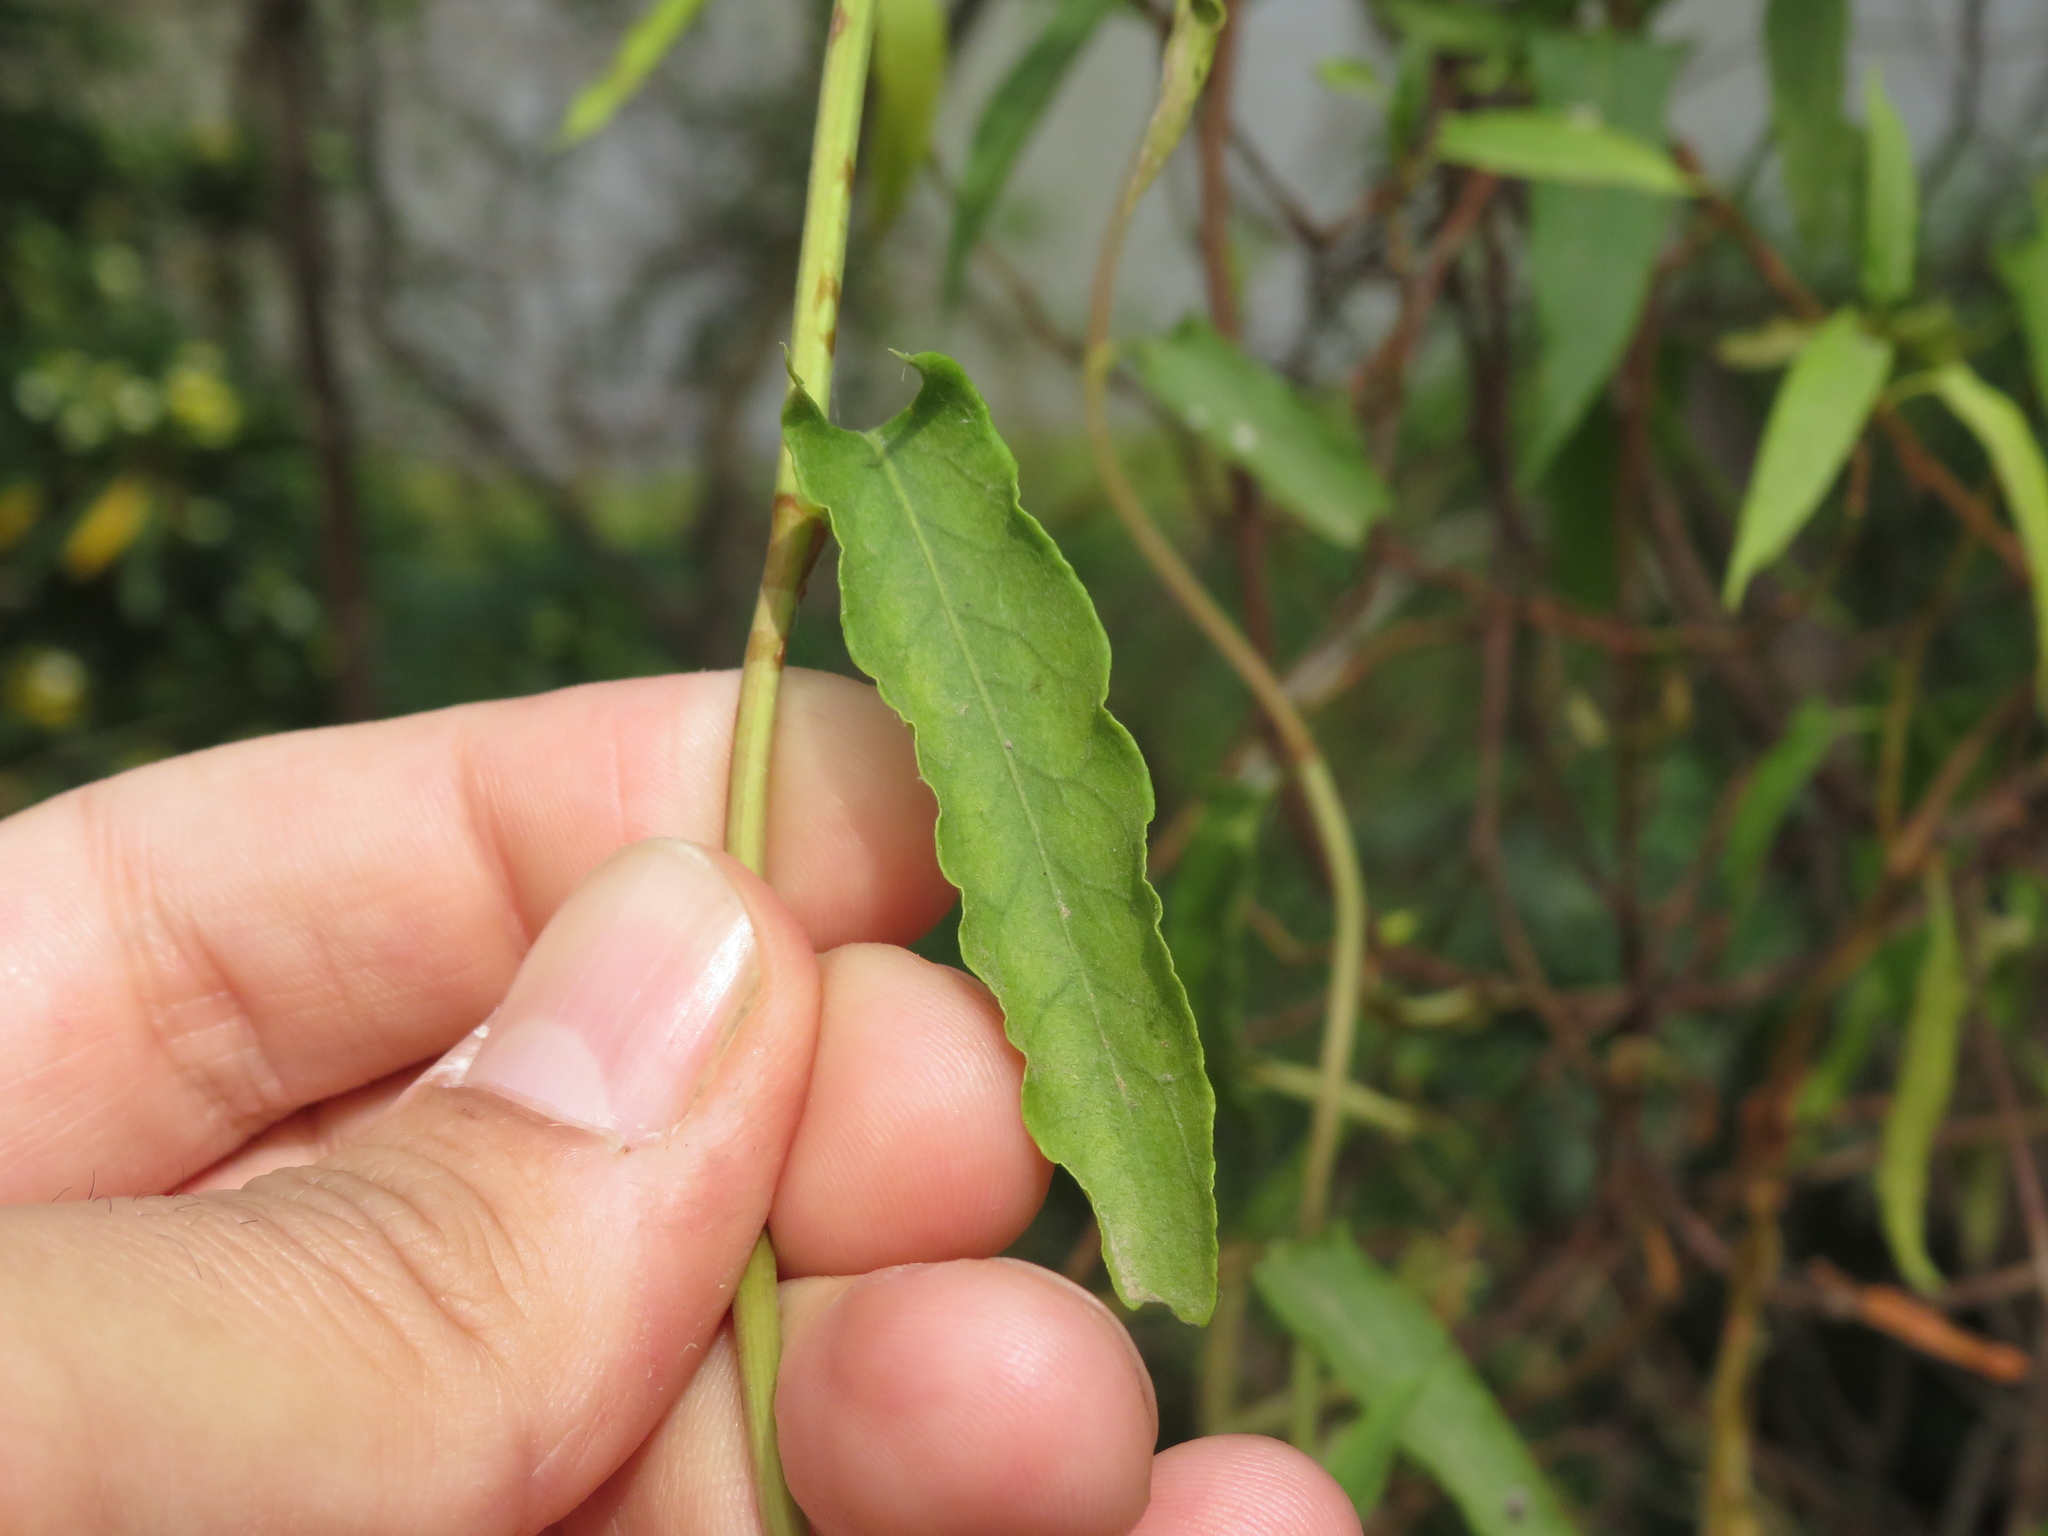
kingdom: Plantae
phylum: Tracheophyta
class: Magnoliopsida
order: Caryophyllales
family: Polygonaceae
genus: Muehlenbeckia
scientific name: Muehlenbeckia sagittifolia
